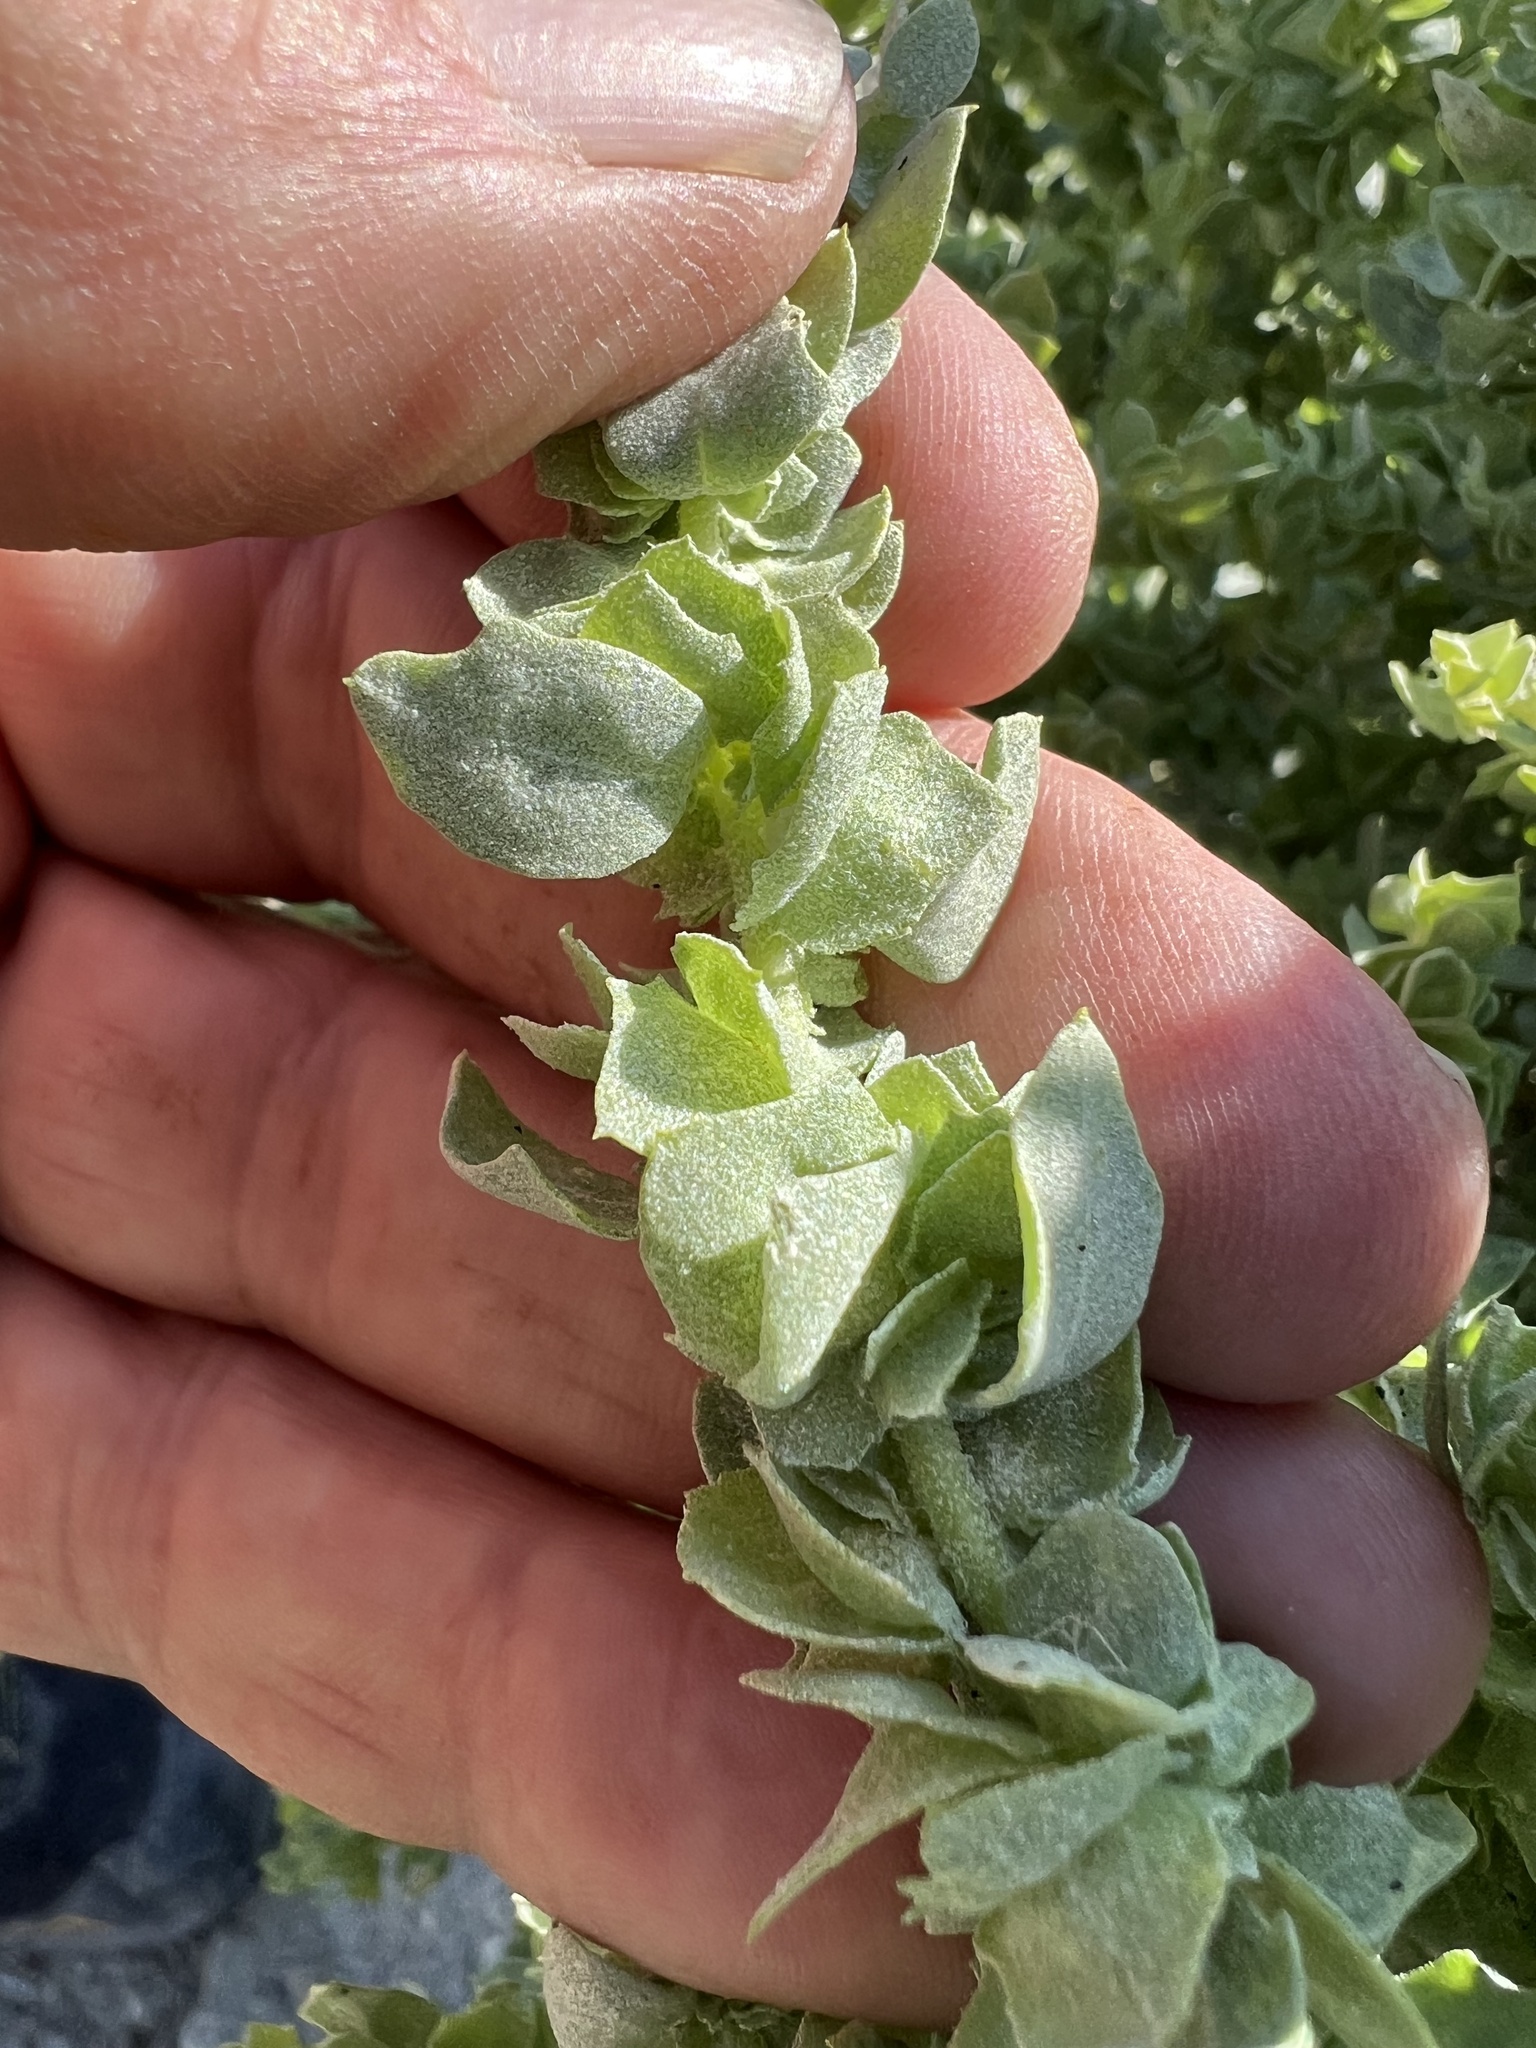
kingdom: Plantae
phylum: Tracheophyta
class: Magnoliopsida
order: Caryophyllales
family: Amaranthaceae
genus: Atriplex
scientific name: Atriplex confertifolia
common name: Shadscale
